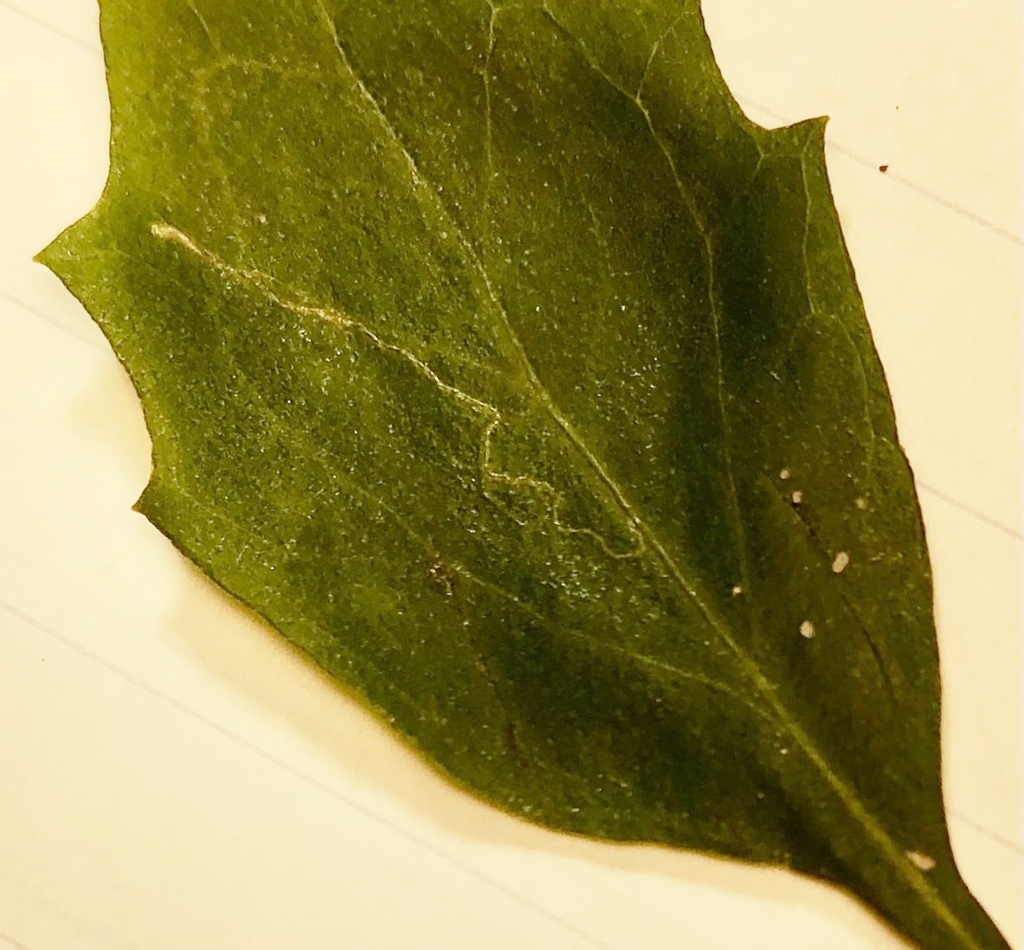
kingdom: Animalia
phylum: Arthropoda
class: Insecta
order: Lepidoptera
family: Bucculatricidae
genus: Bucculatrix
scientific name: Bucculatrix ivella
